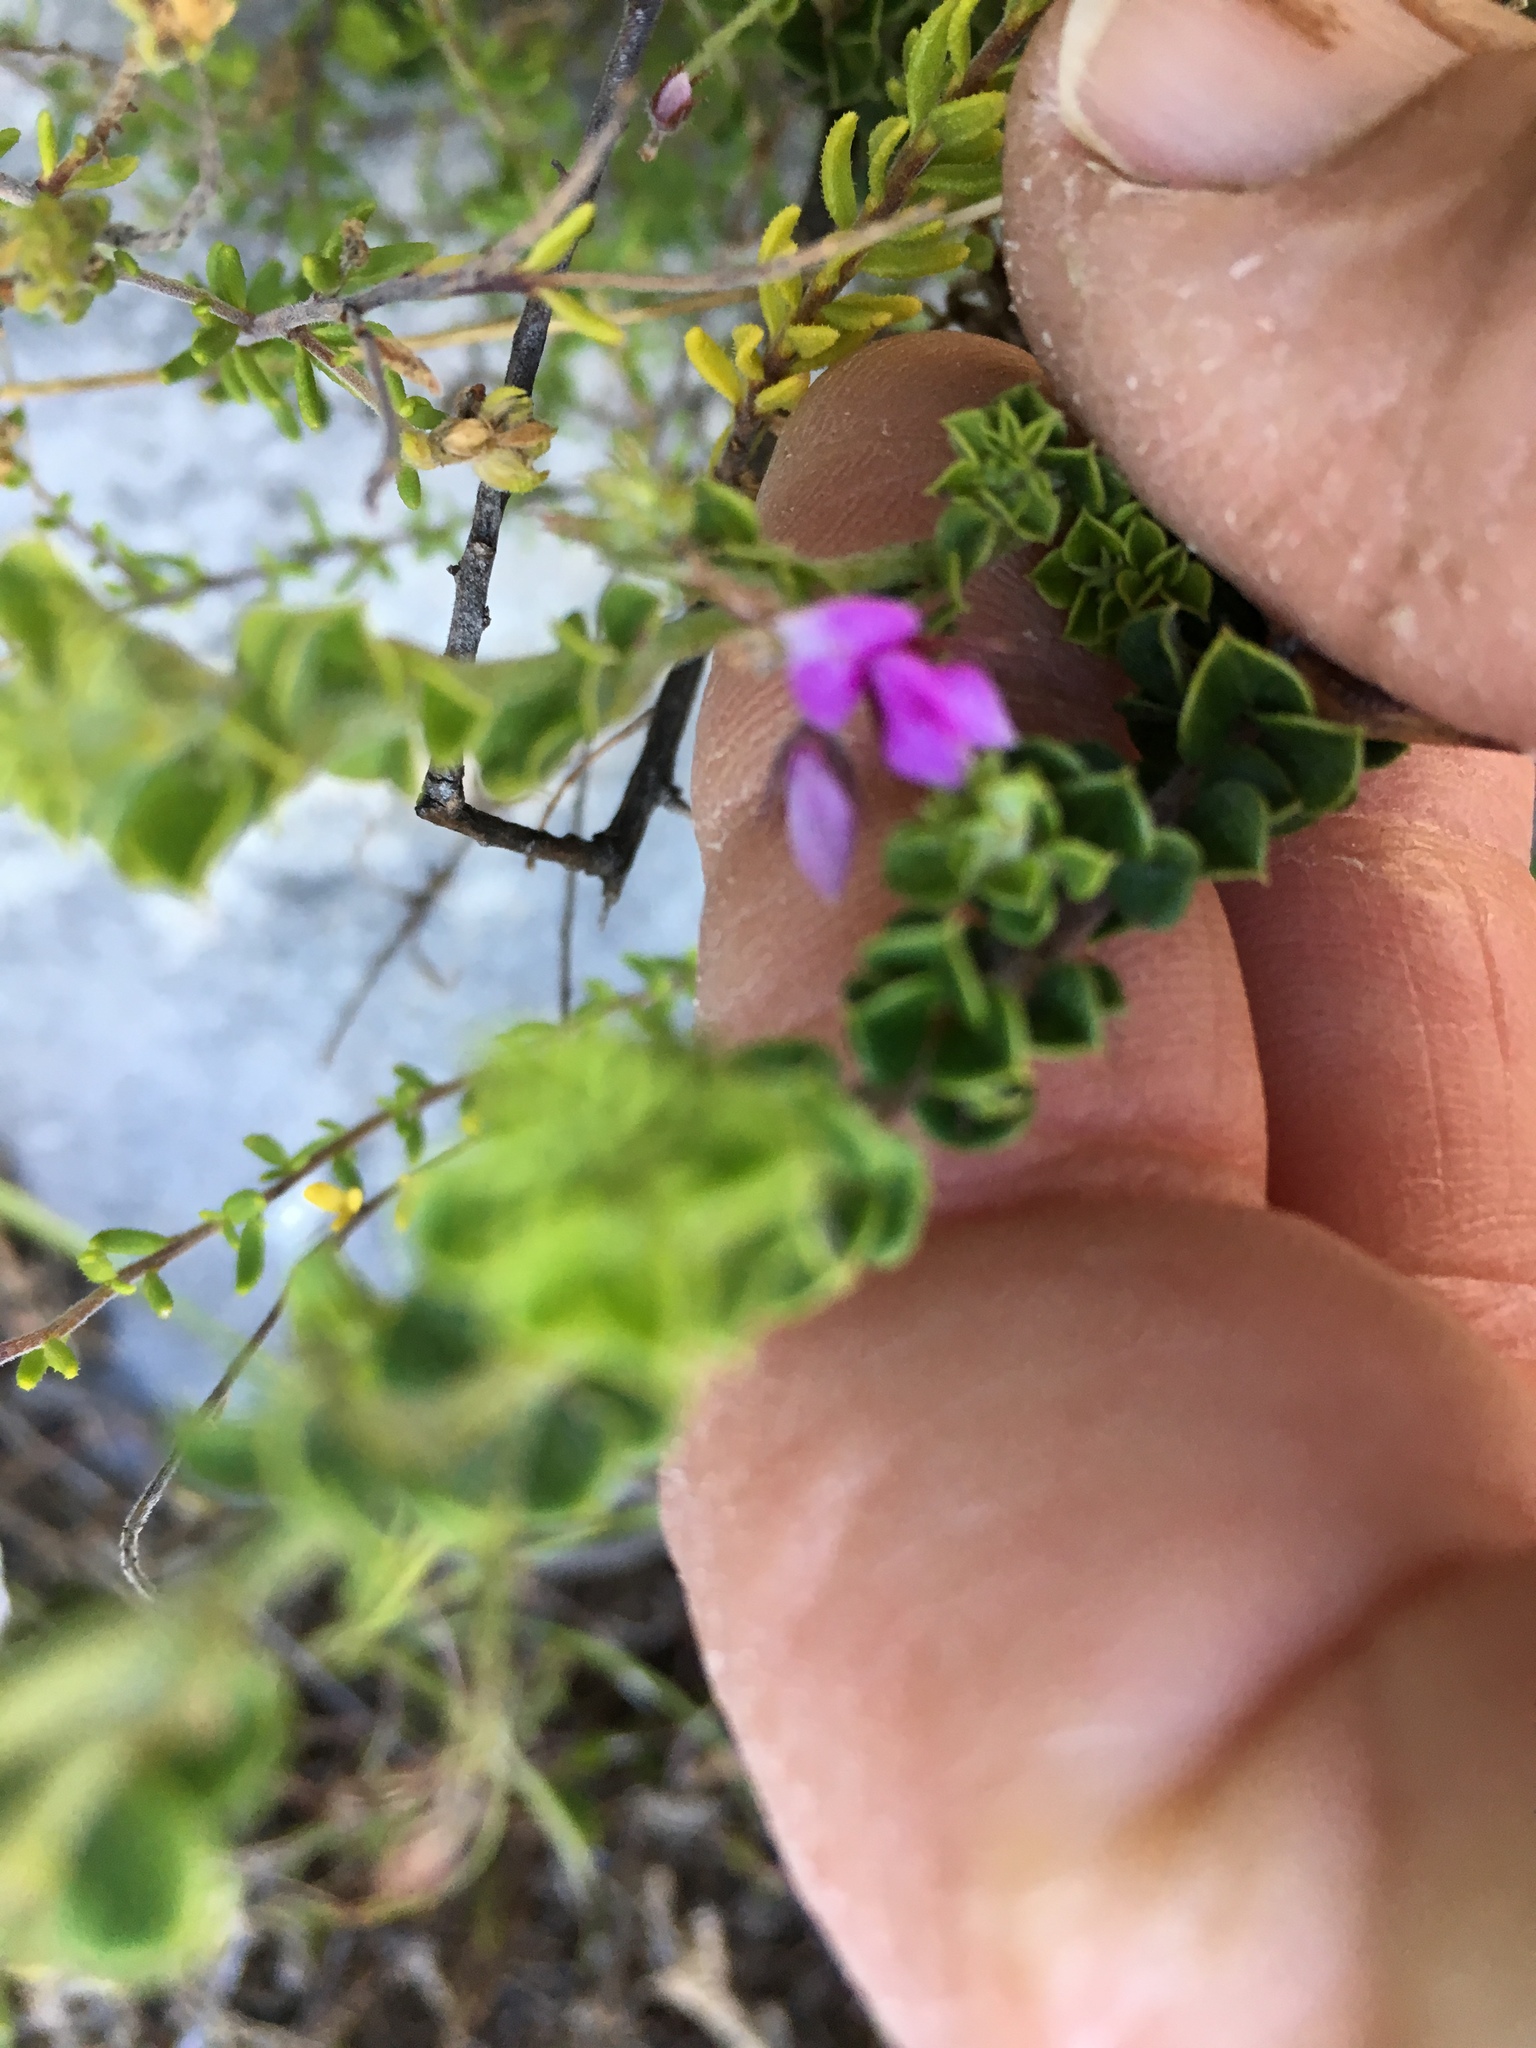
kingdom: Plantae
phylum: Tracheophyta
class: Magnoliopsida
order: Fabales
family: Fabaceae
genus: Indigofera
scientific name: Indigofera candolleana
